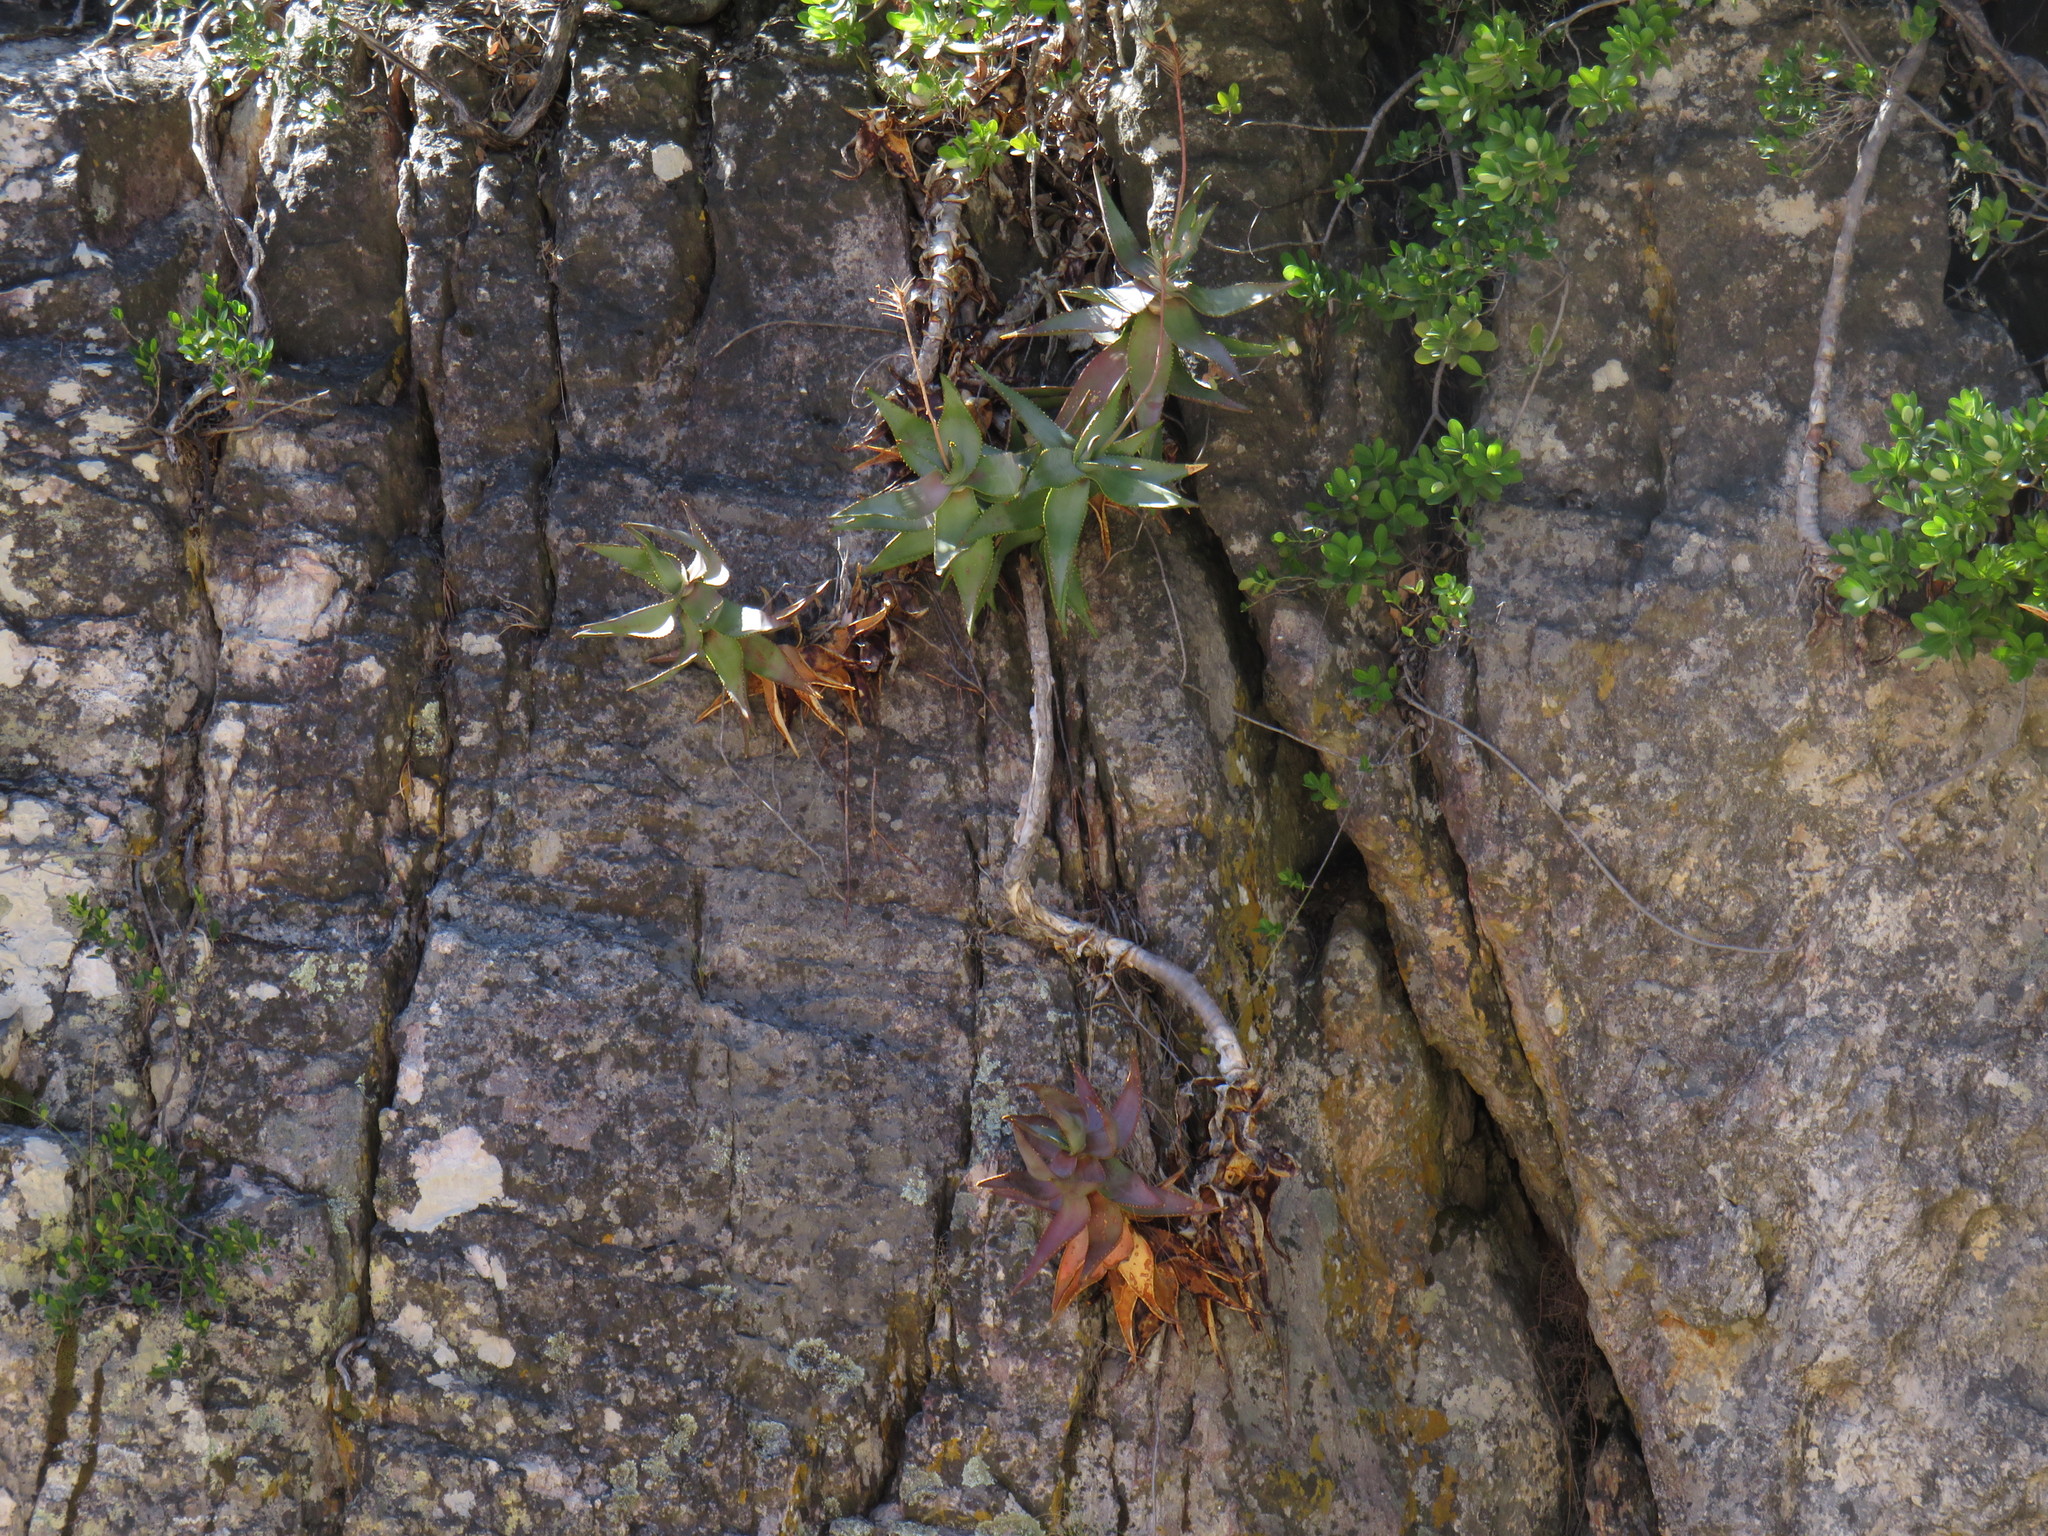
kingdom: Plantae
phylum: Tracheophyta
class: Liliopsida
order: Asparagales
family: Asphodelaceae
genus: Aloe
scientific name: Aloe perfoliata
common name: Mitra aloe
